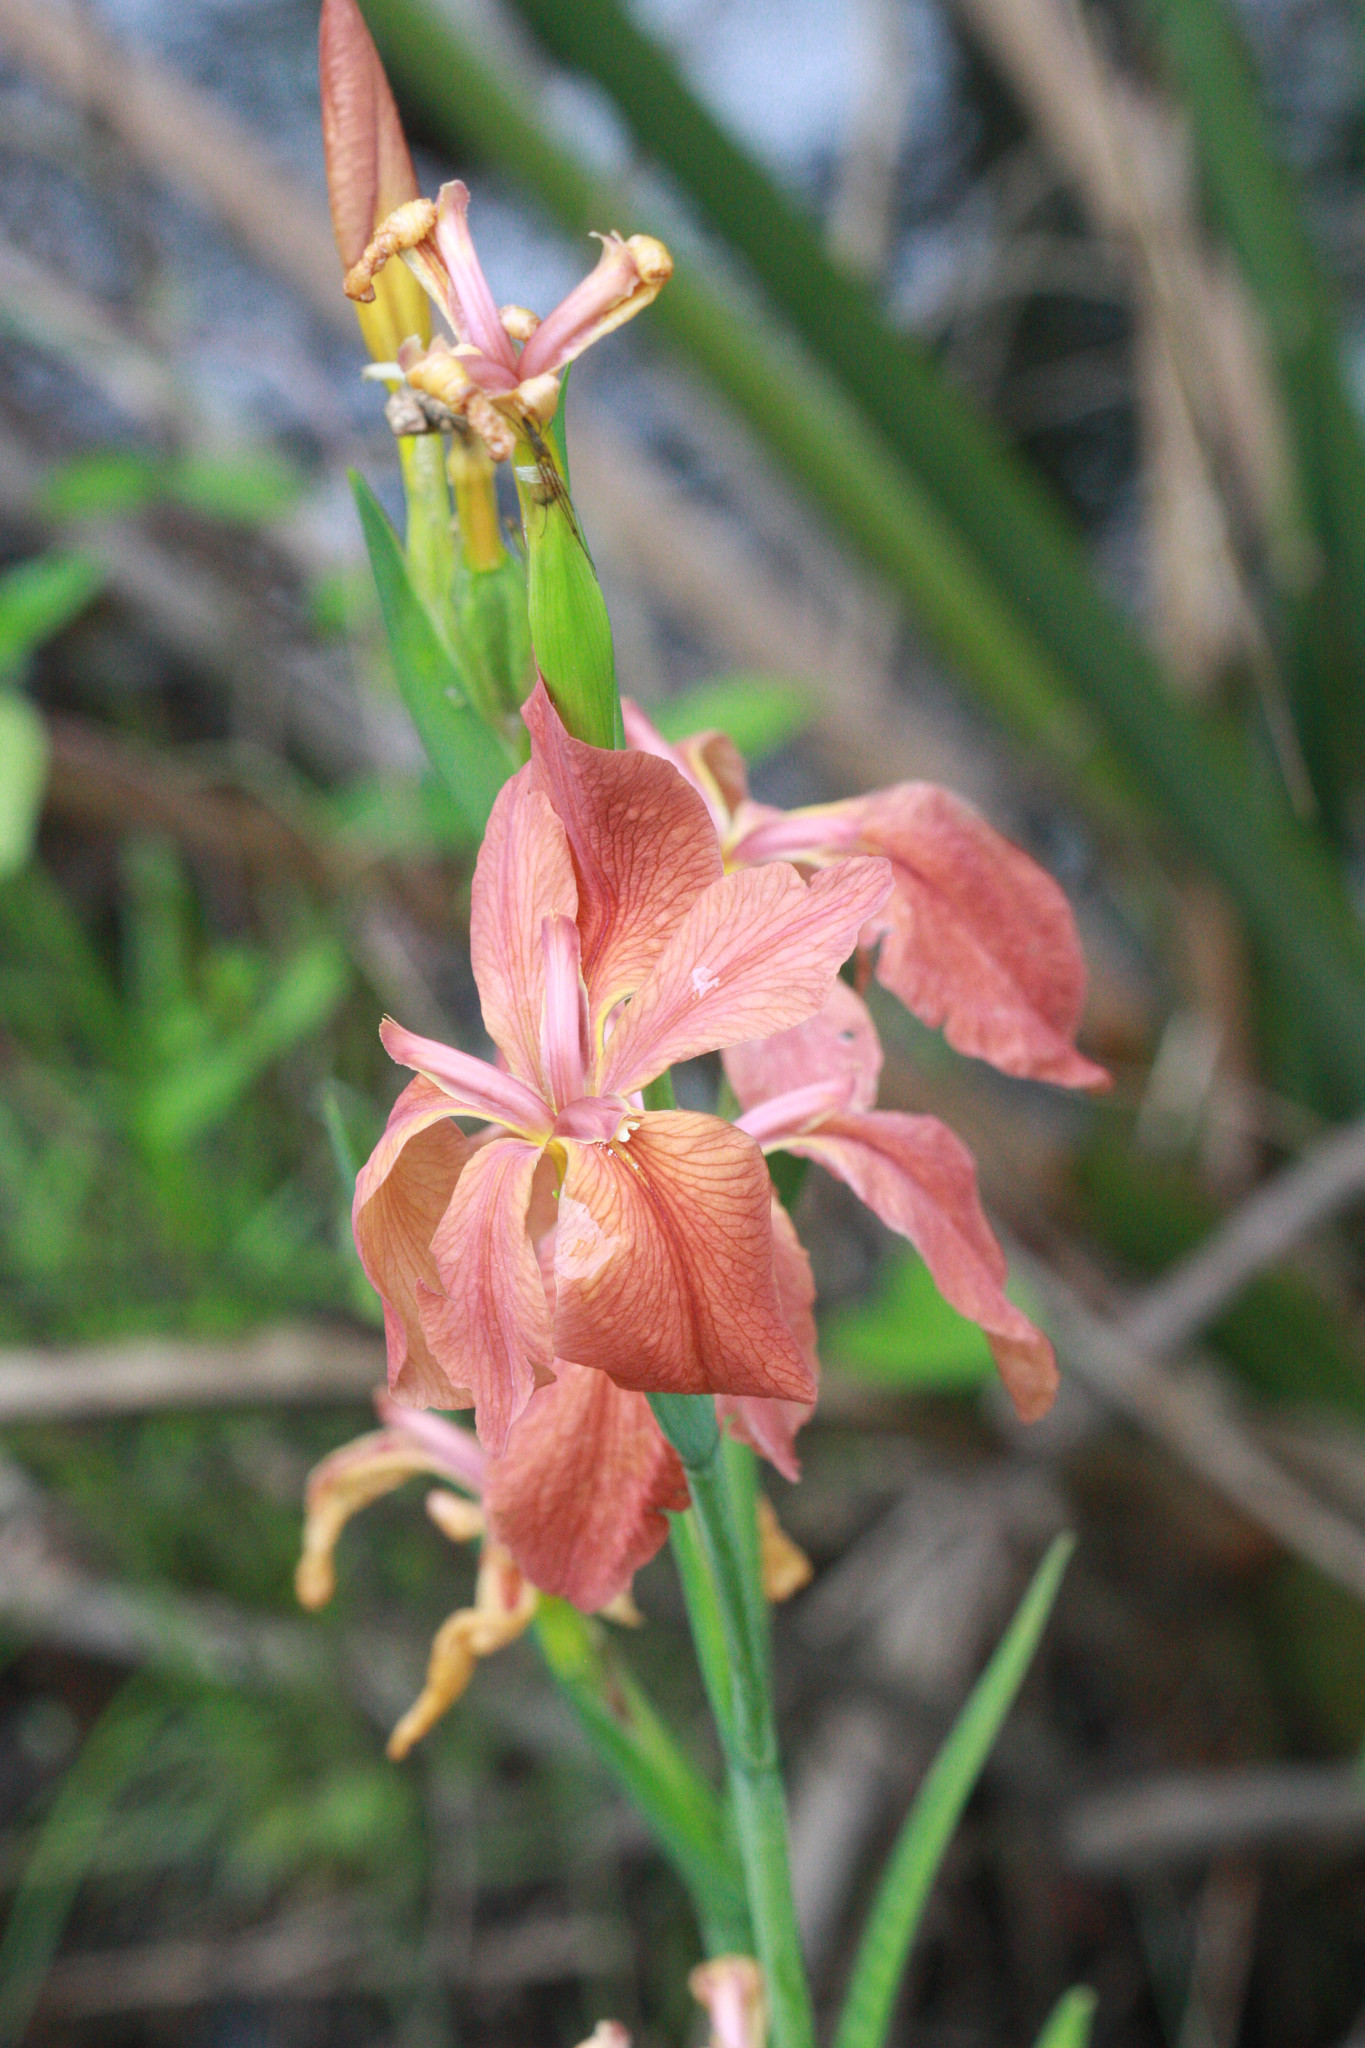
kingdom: Plantae
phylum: Tracheophyta
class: Liliopsida
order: Asparagales
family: Iridaceae
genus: Iris
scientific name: Iris fulva
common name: Copper iris
